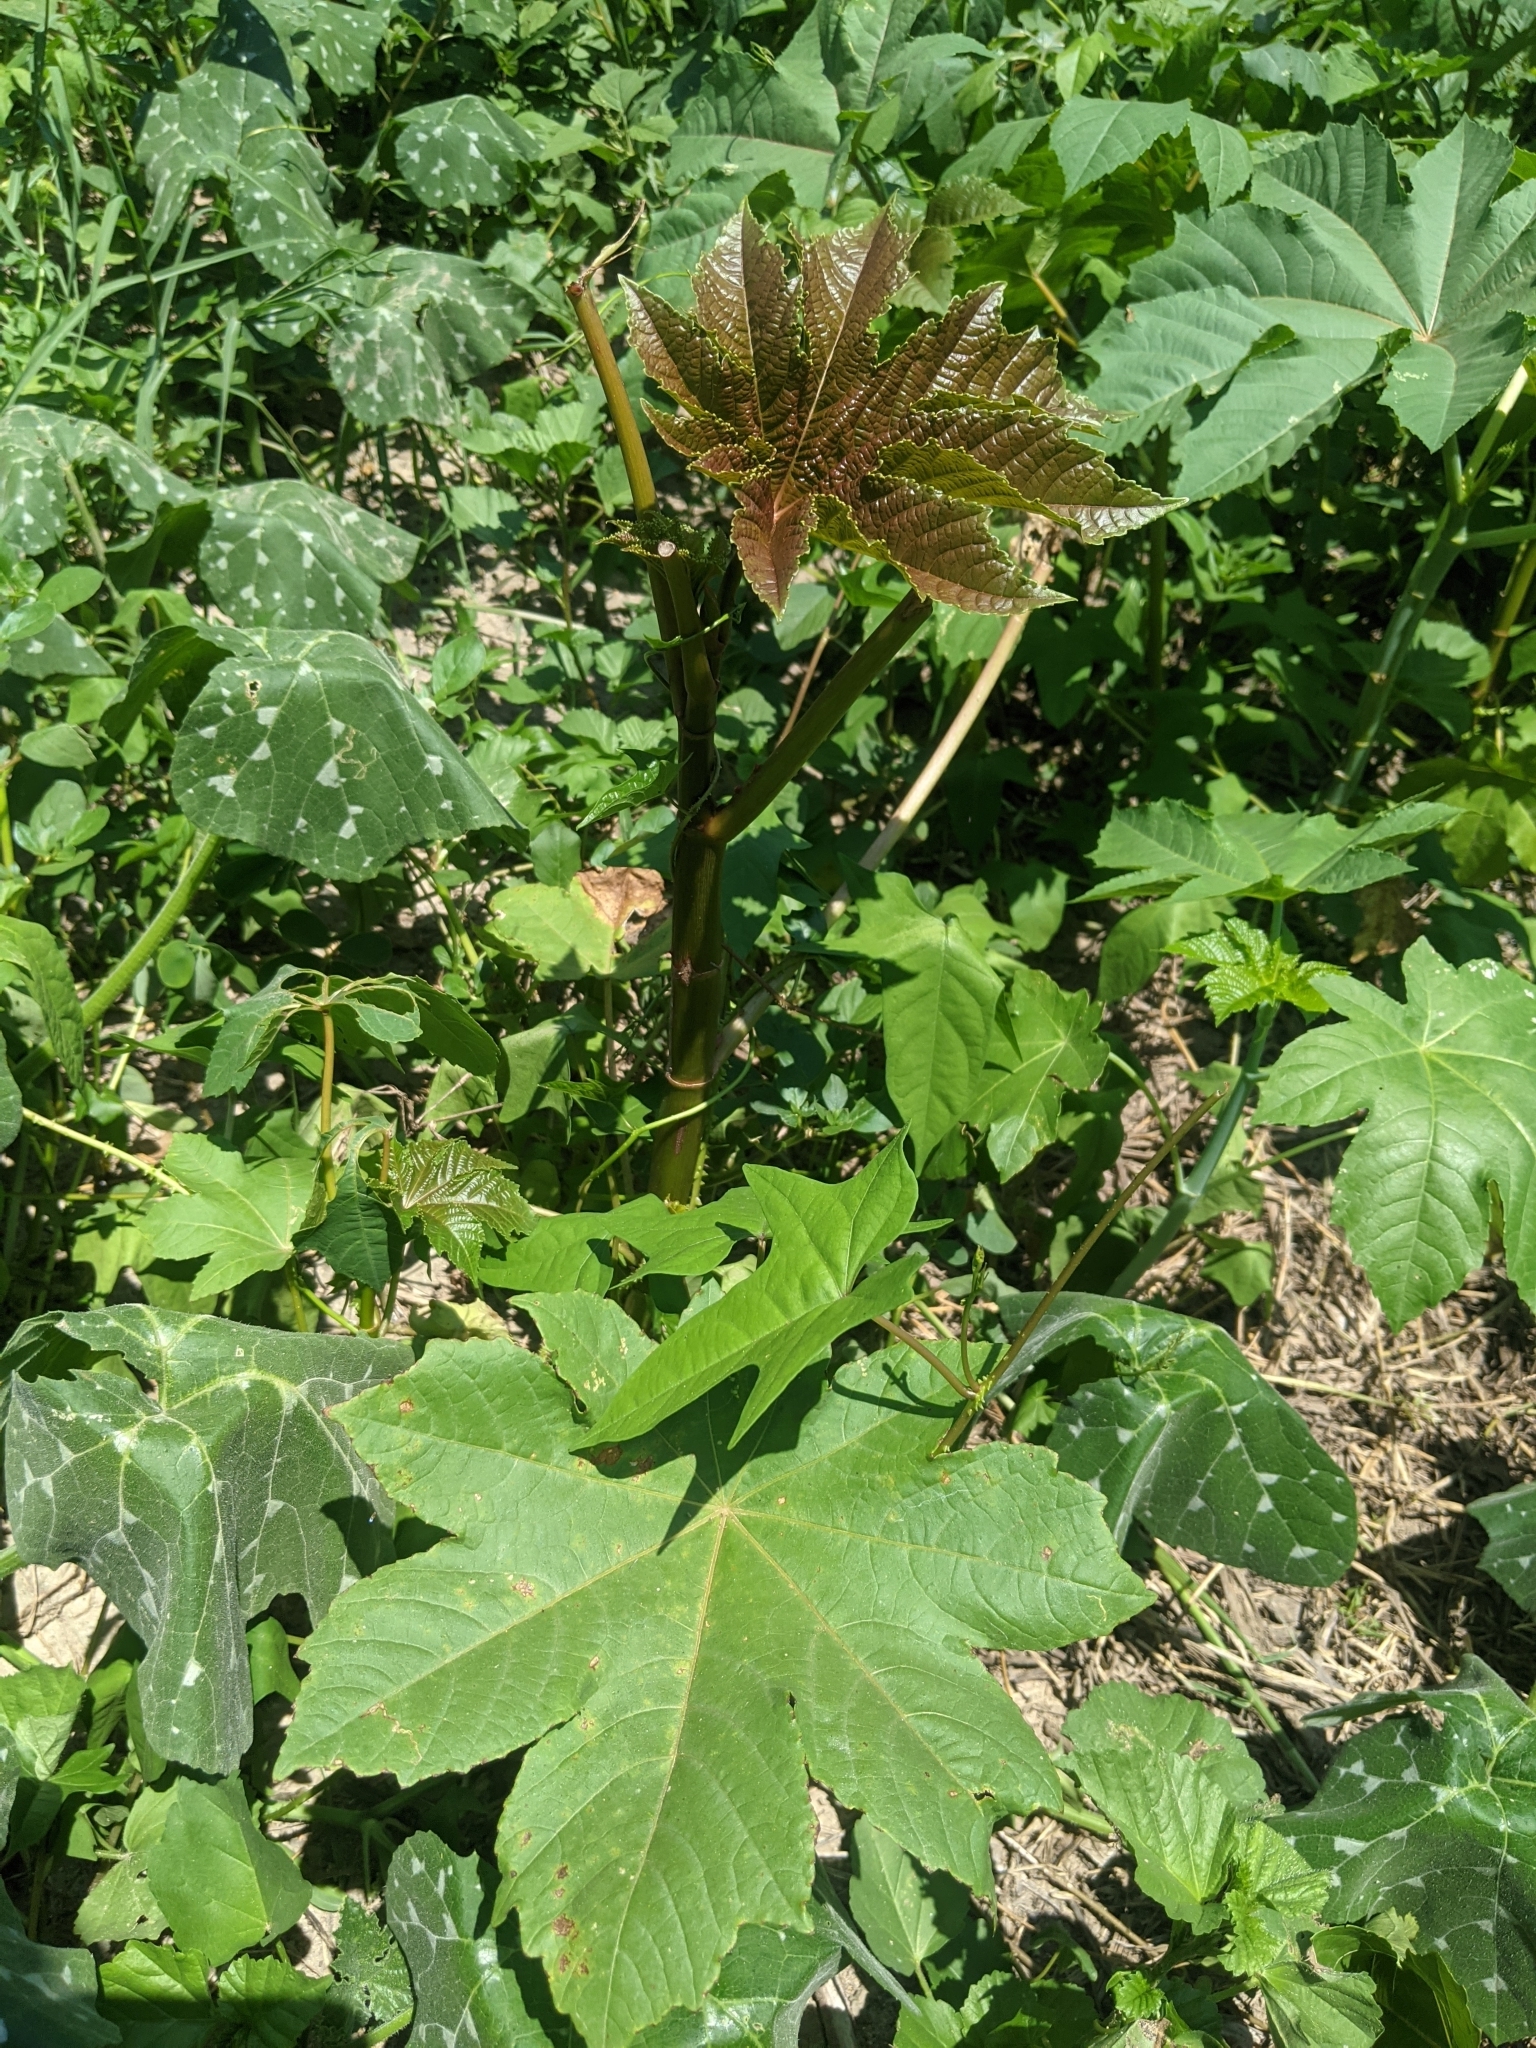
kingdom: Plantae
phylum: Tracheophyta
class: Magnoliopsida
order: Malpighiales
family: Euphorbiaceae
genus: Ricinus
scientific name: Ricinus communis
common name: Castor-oil-plant
